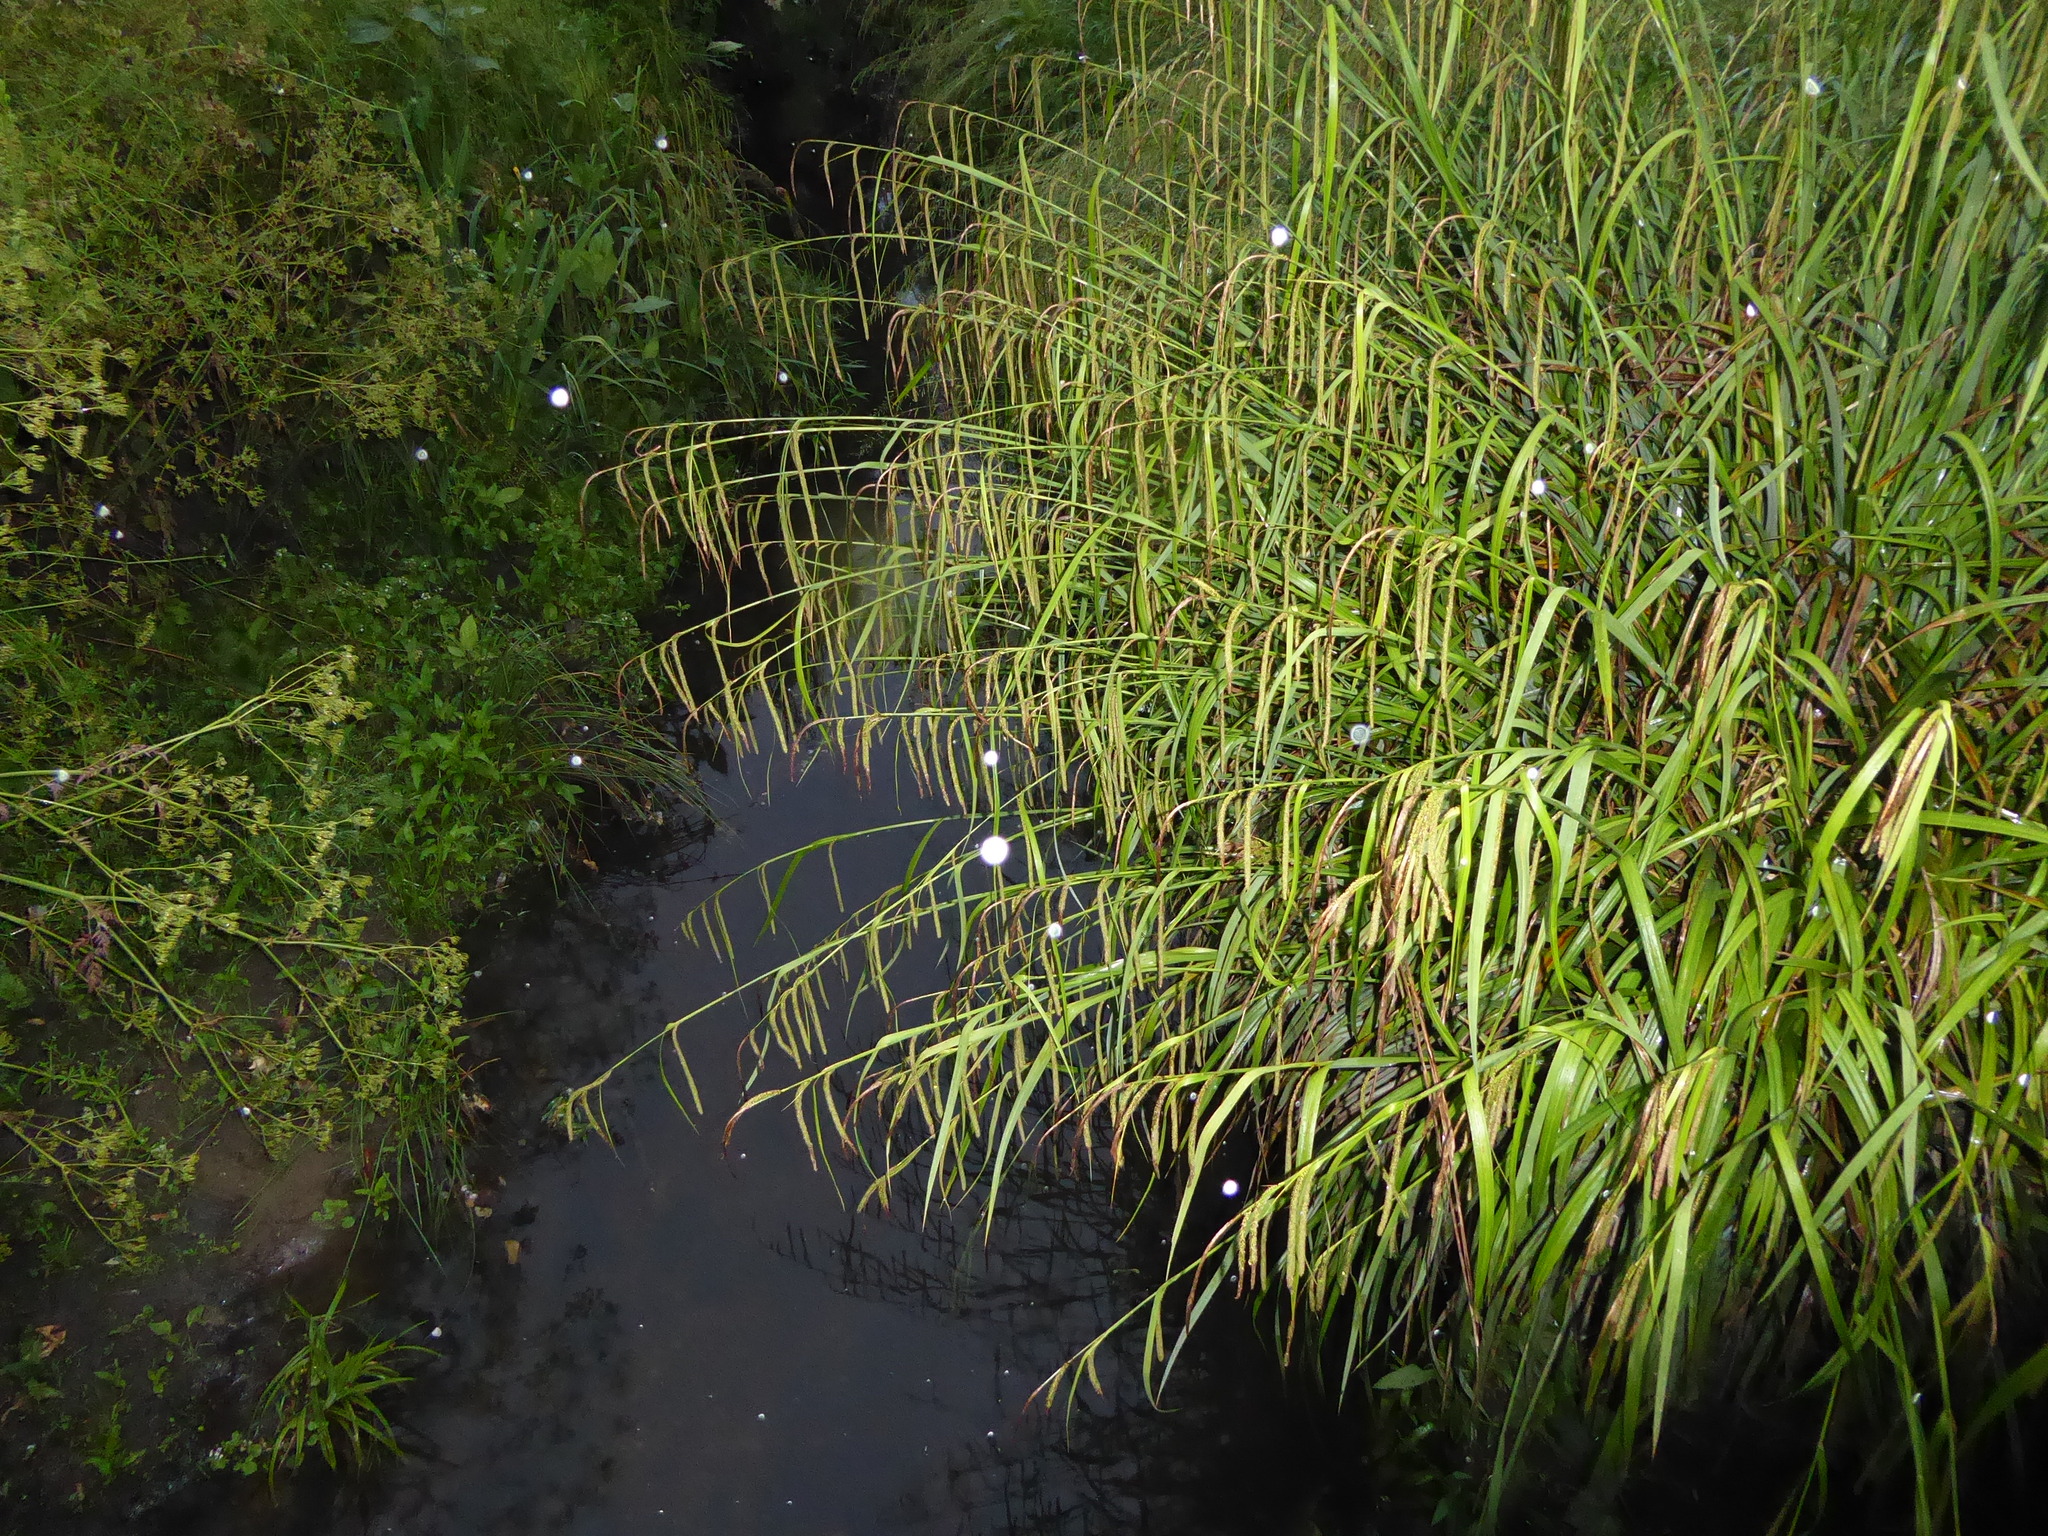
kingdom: Plantae
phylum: Tracheophyta
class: Liliopsida
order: Poales
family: Cyperaceae
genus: Carex
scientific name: Carex pendula
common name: Pendulous sedge
